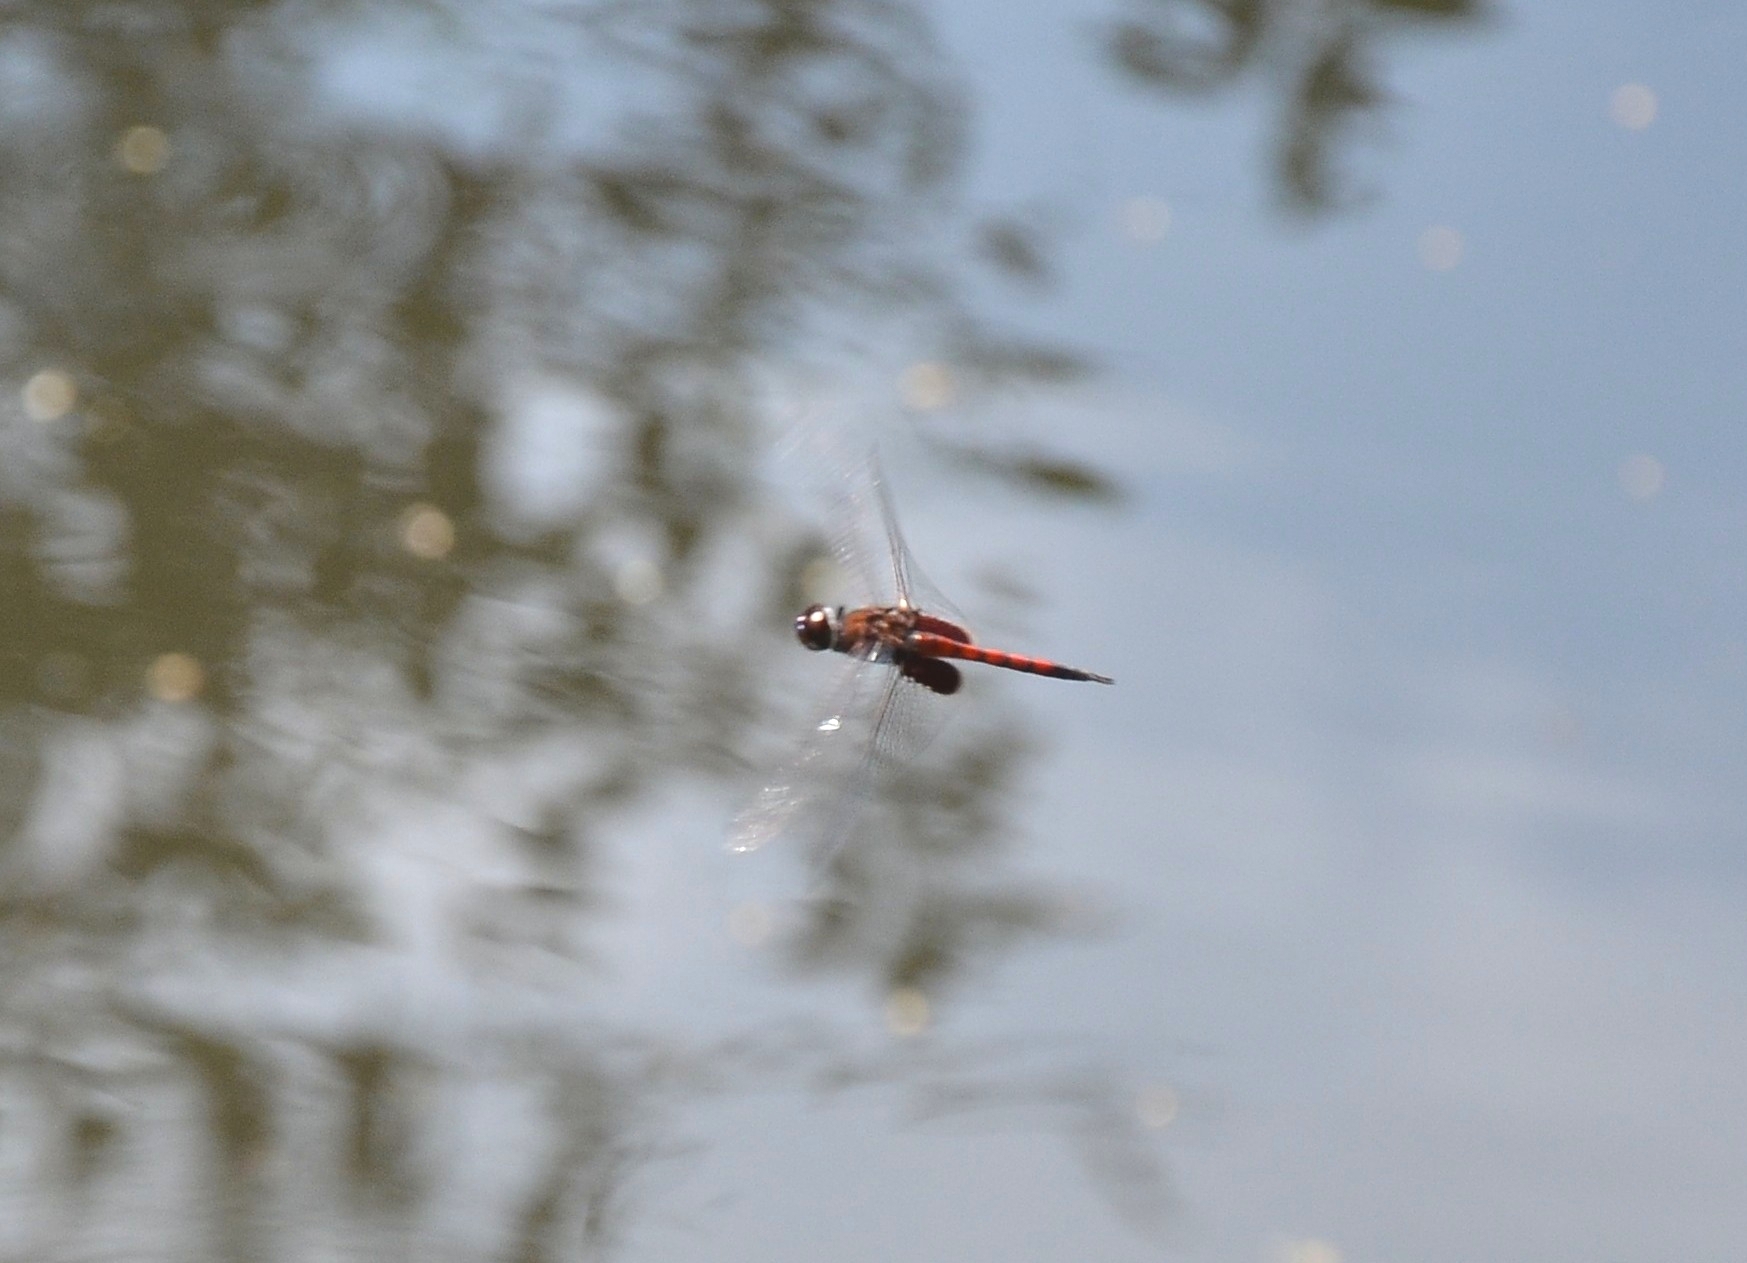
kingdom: Animalia
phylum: Arthropoda
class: Insecta
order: Odonata
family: Libellulidae
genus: Tramea
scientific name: Tramea limbata
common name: Ferruginous glider
